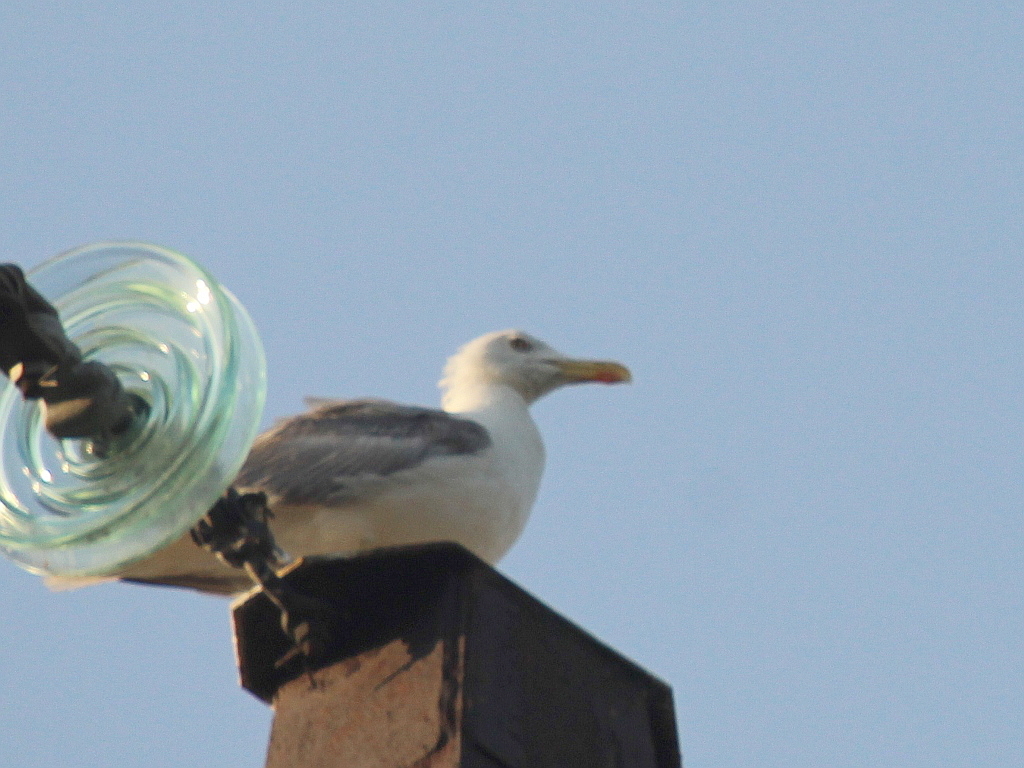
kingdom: Animalia
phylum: Chordata
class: Aves
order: Charadriiformes
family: Laridae
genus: Larus
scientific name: Larus michahellis
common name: Yellow-legged gull
